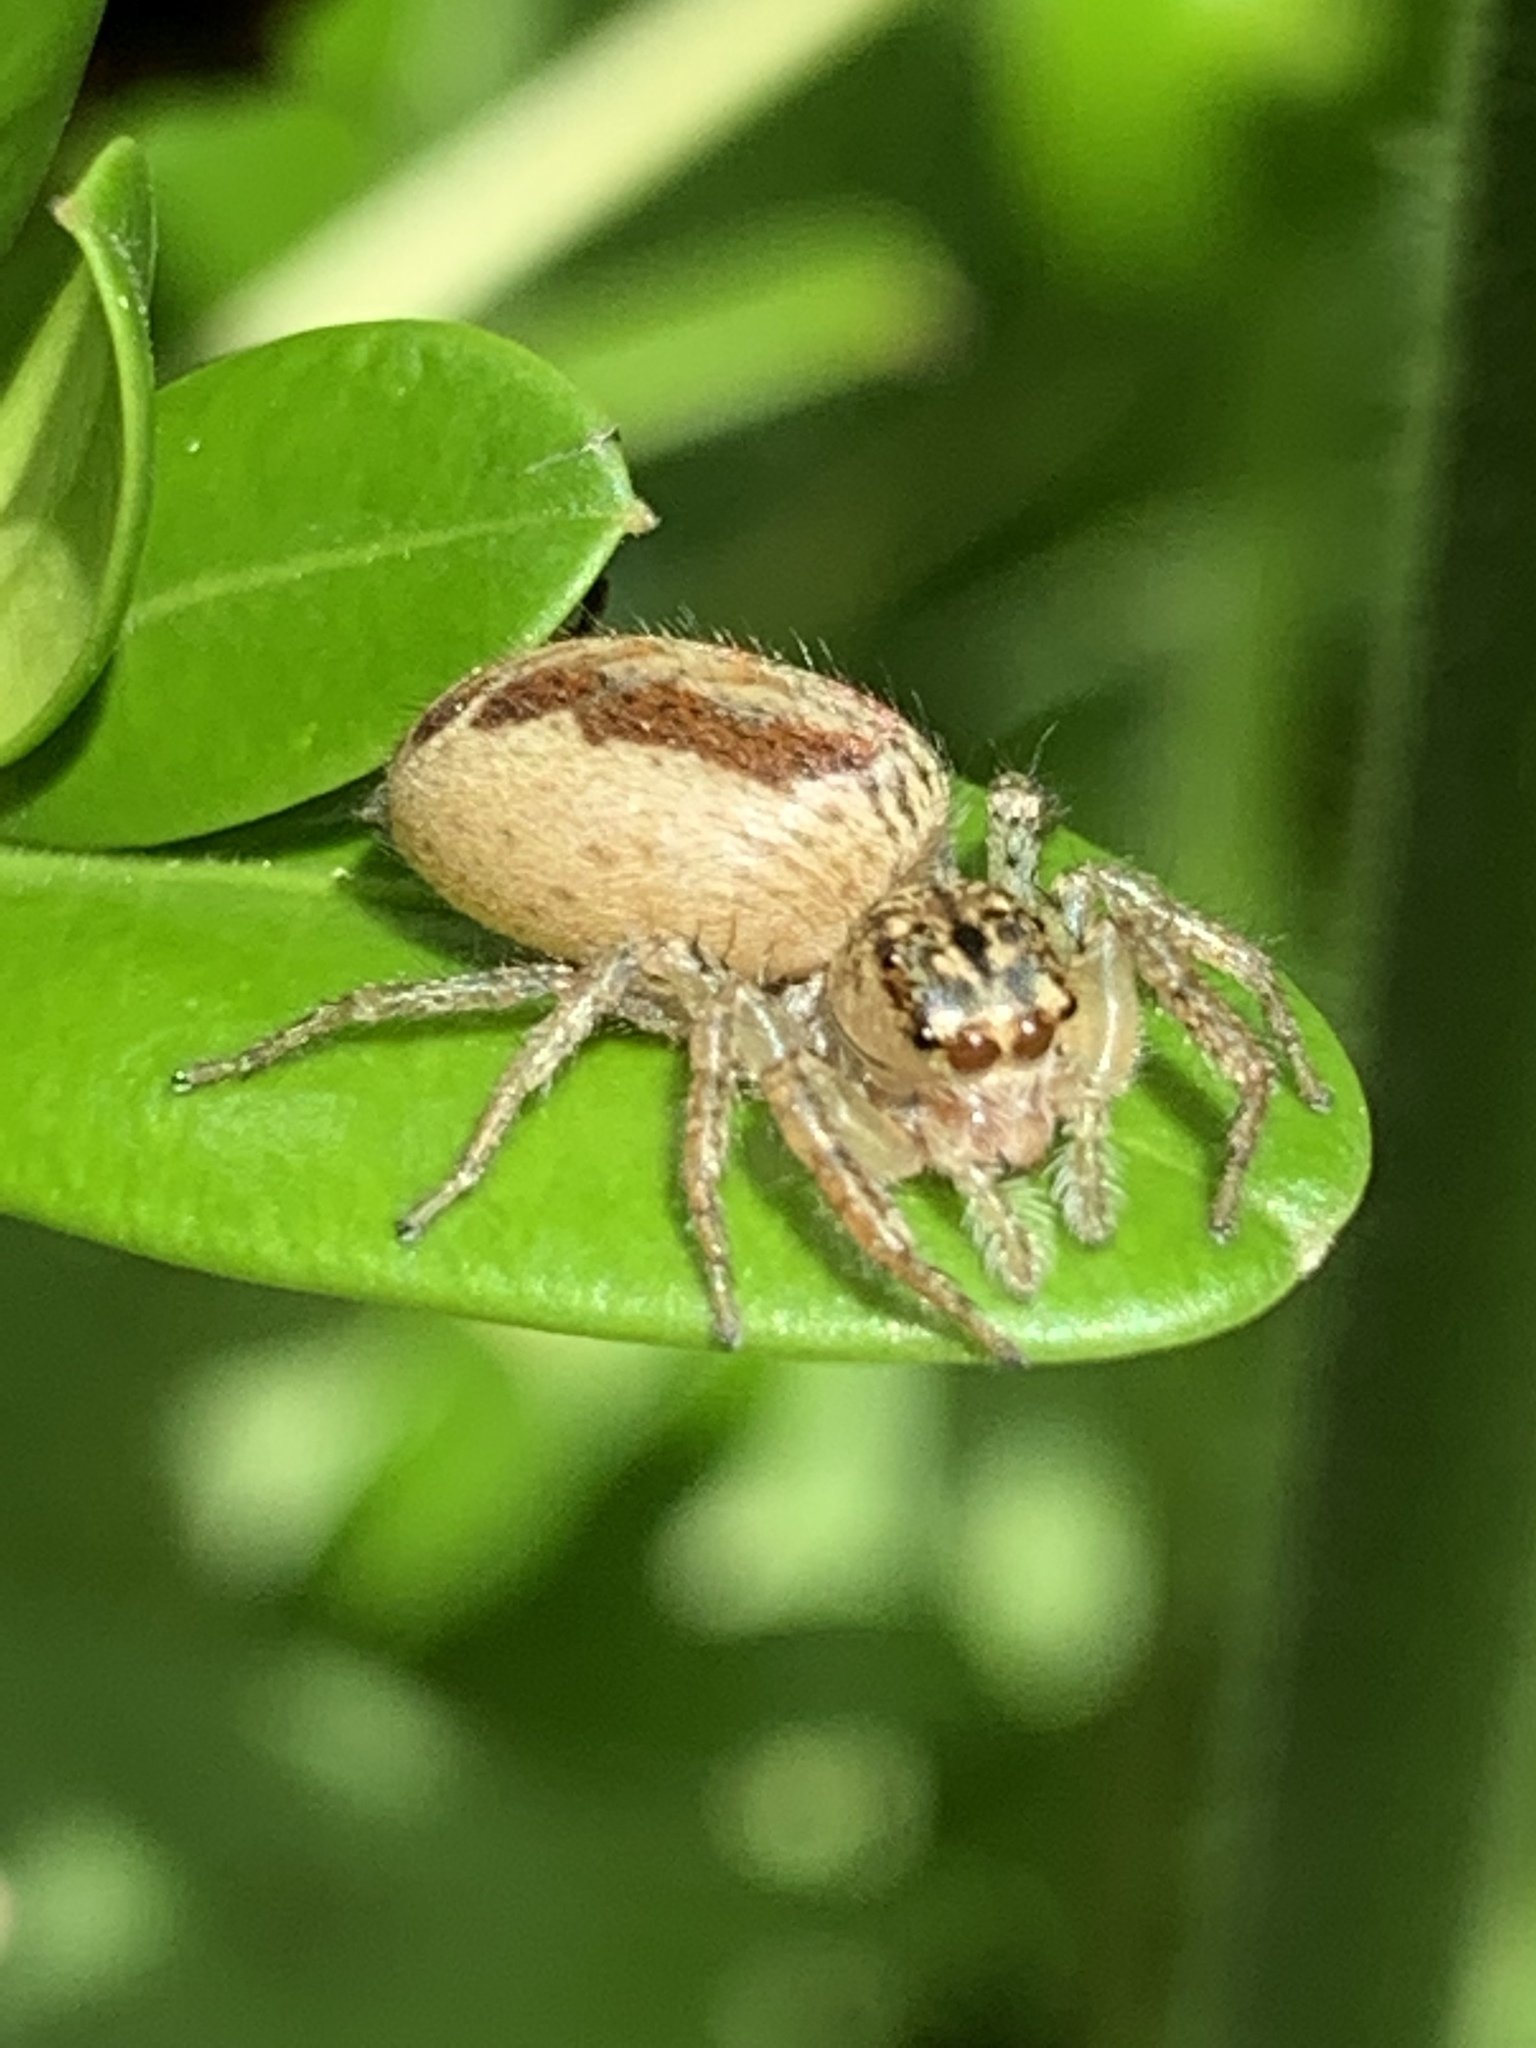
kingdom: Animalia
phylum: Arthropoda
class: Arachnida
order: Araneae
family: Salticidae
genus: Maevia
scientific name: Maevia inclemens
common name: Dimorphic jumper
